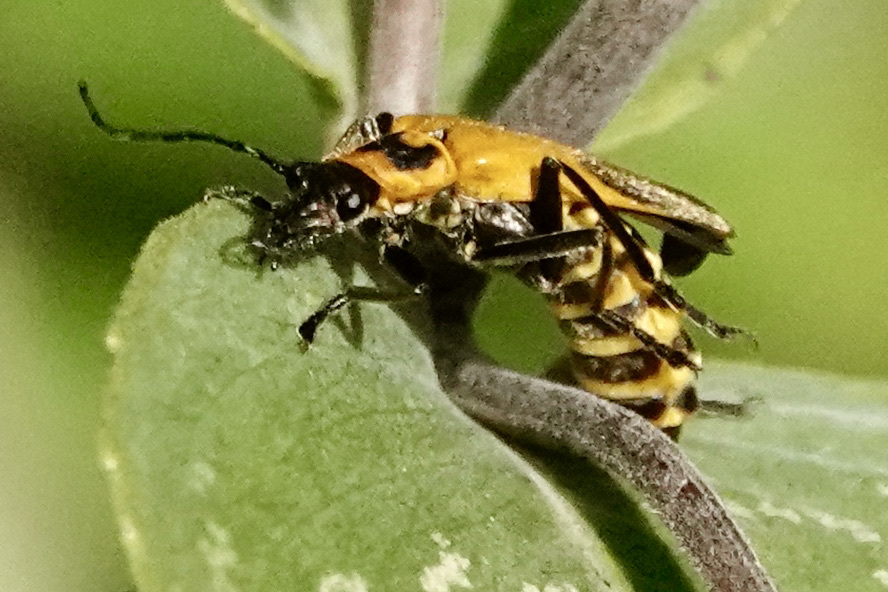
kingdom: Animalia
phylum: Arthropoda
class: Insecta
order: Coleoptera
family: Cantharidae
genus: Chauliognathus
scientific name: Chauliognathus pensylvanicus
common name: Goldenrod soldier beetle
